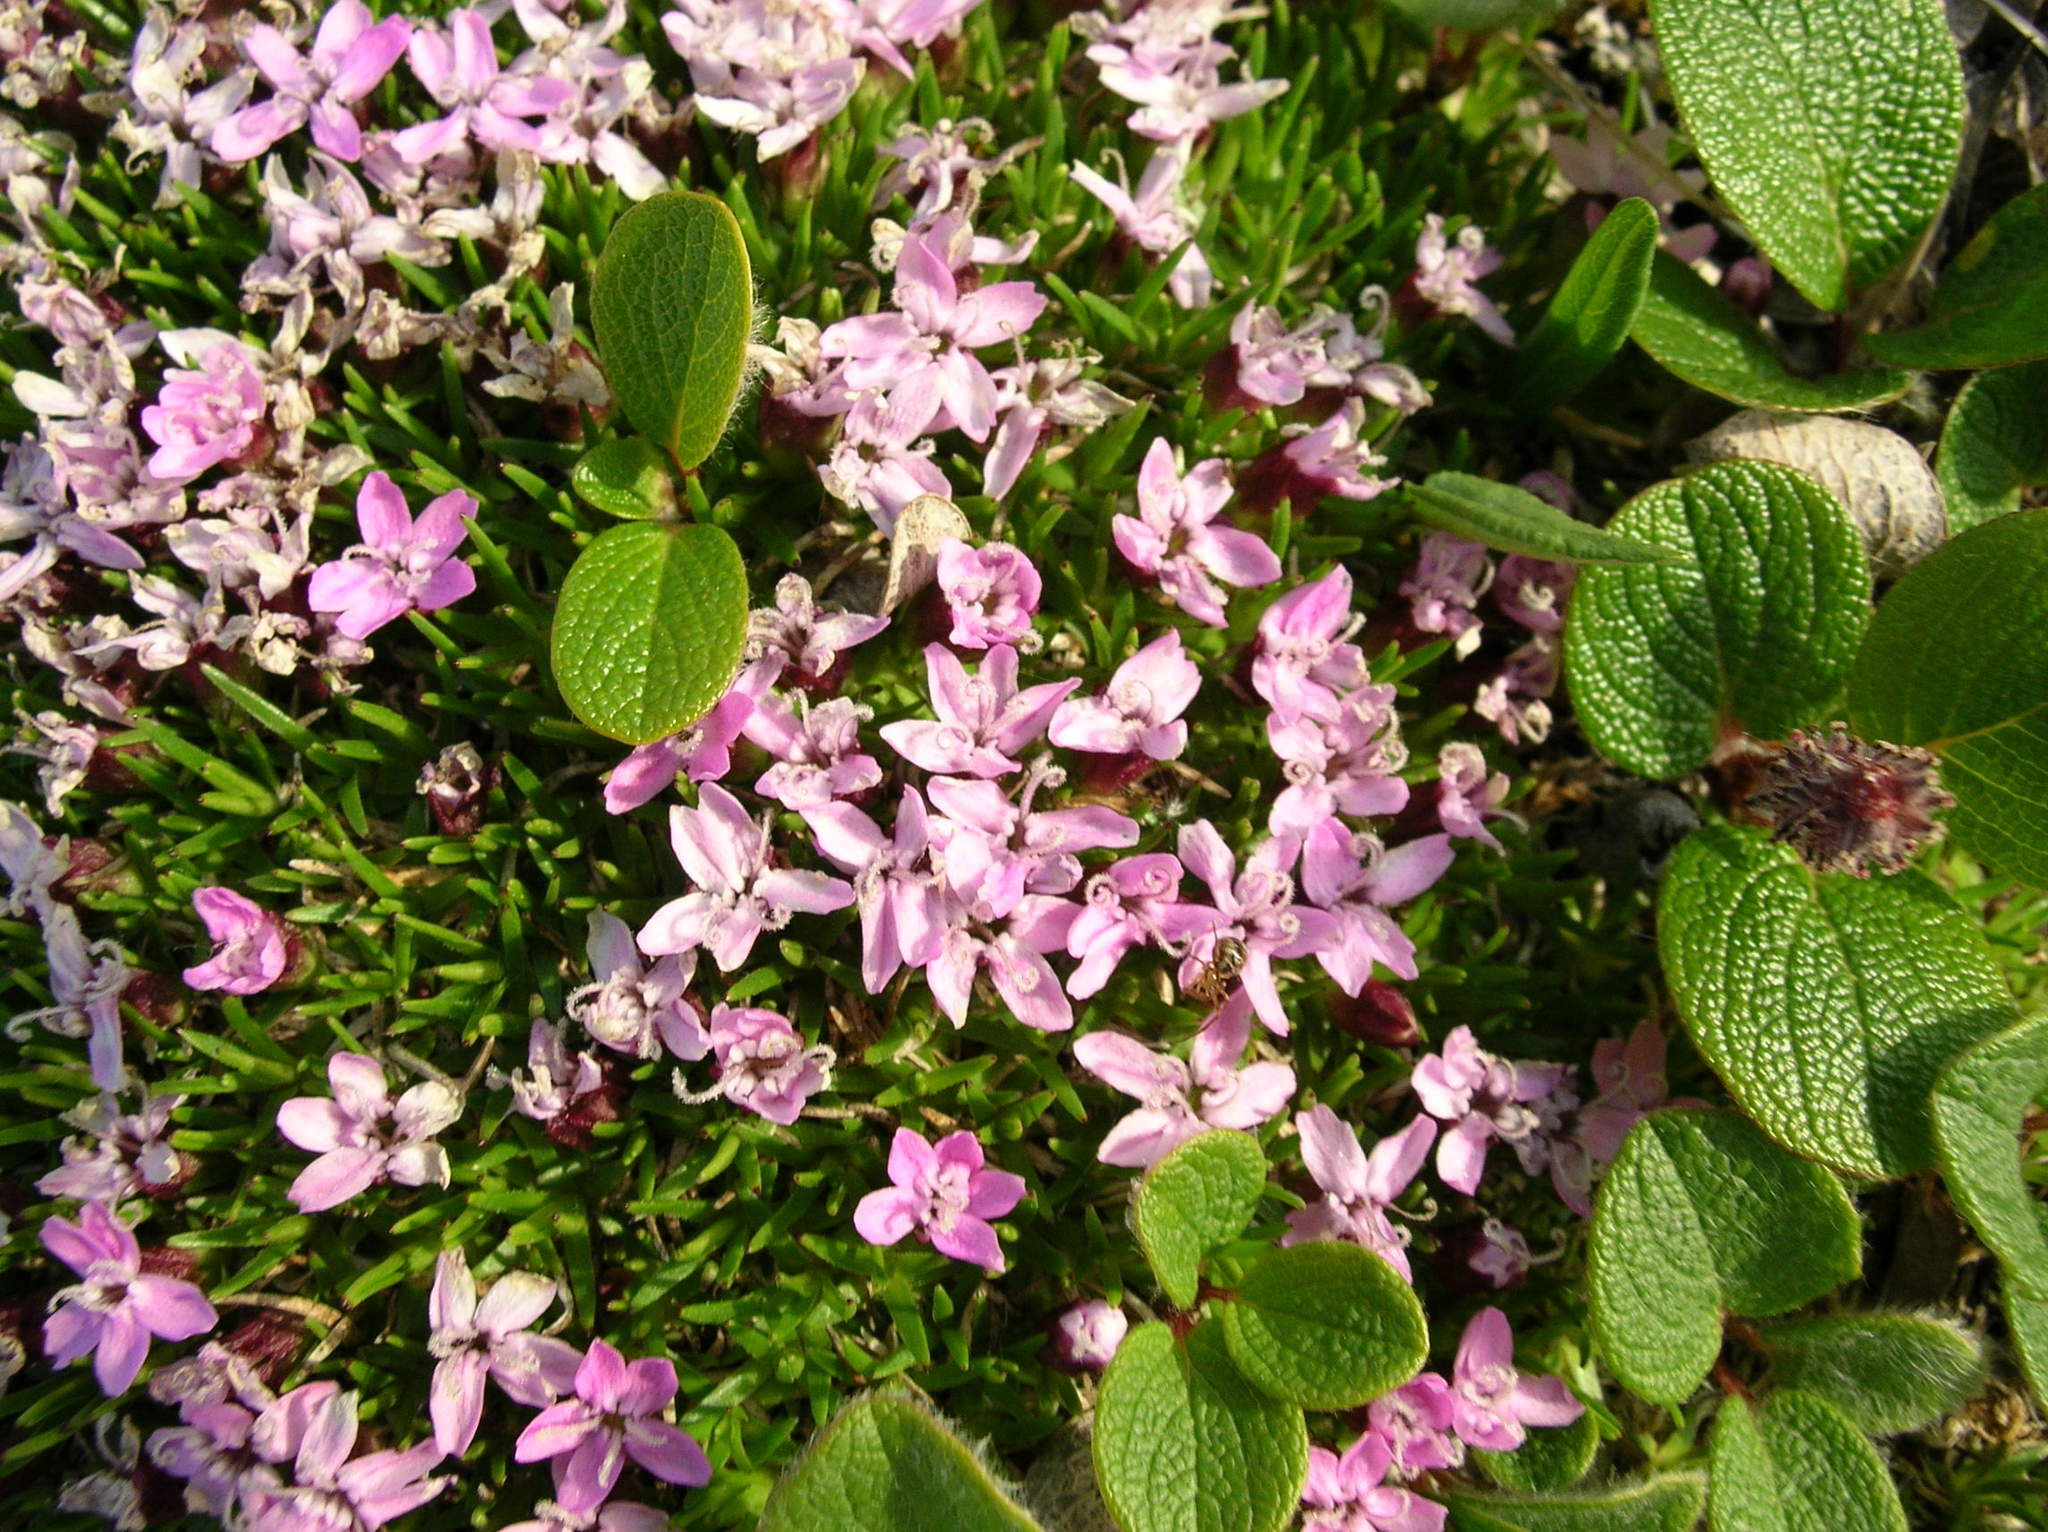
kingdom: Plantae
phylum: Tracheophyta
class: Magnoliopsida
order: Caryophyllales
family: Caryophyllaceae
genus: Silene
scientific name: Silene acaulis
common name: Moss campion
